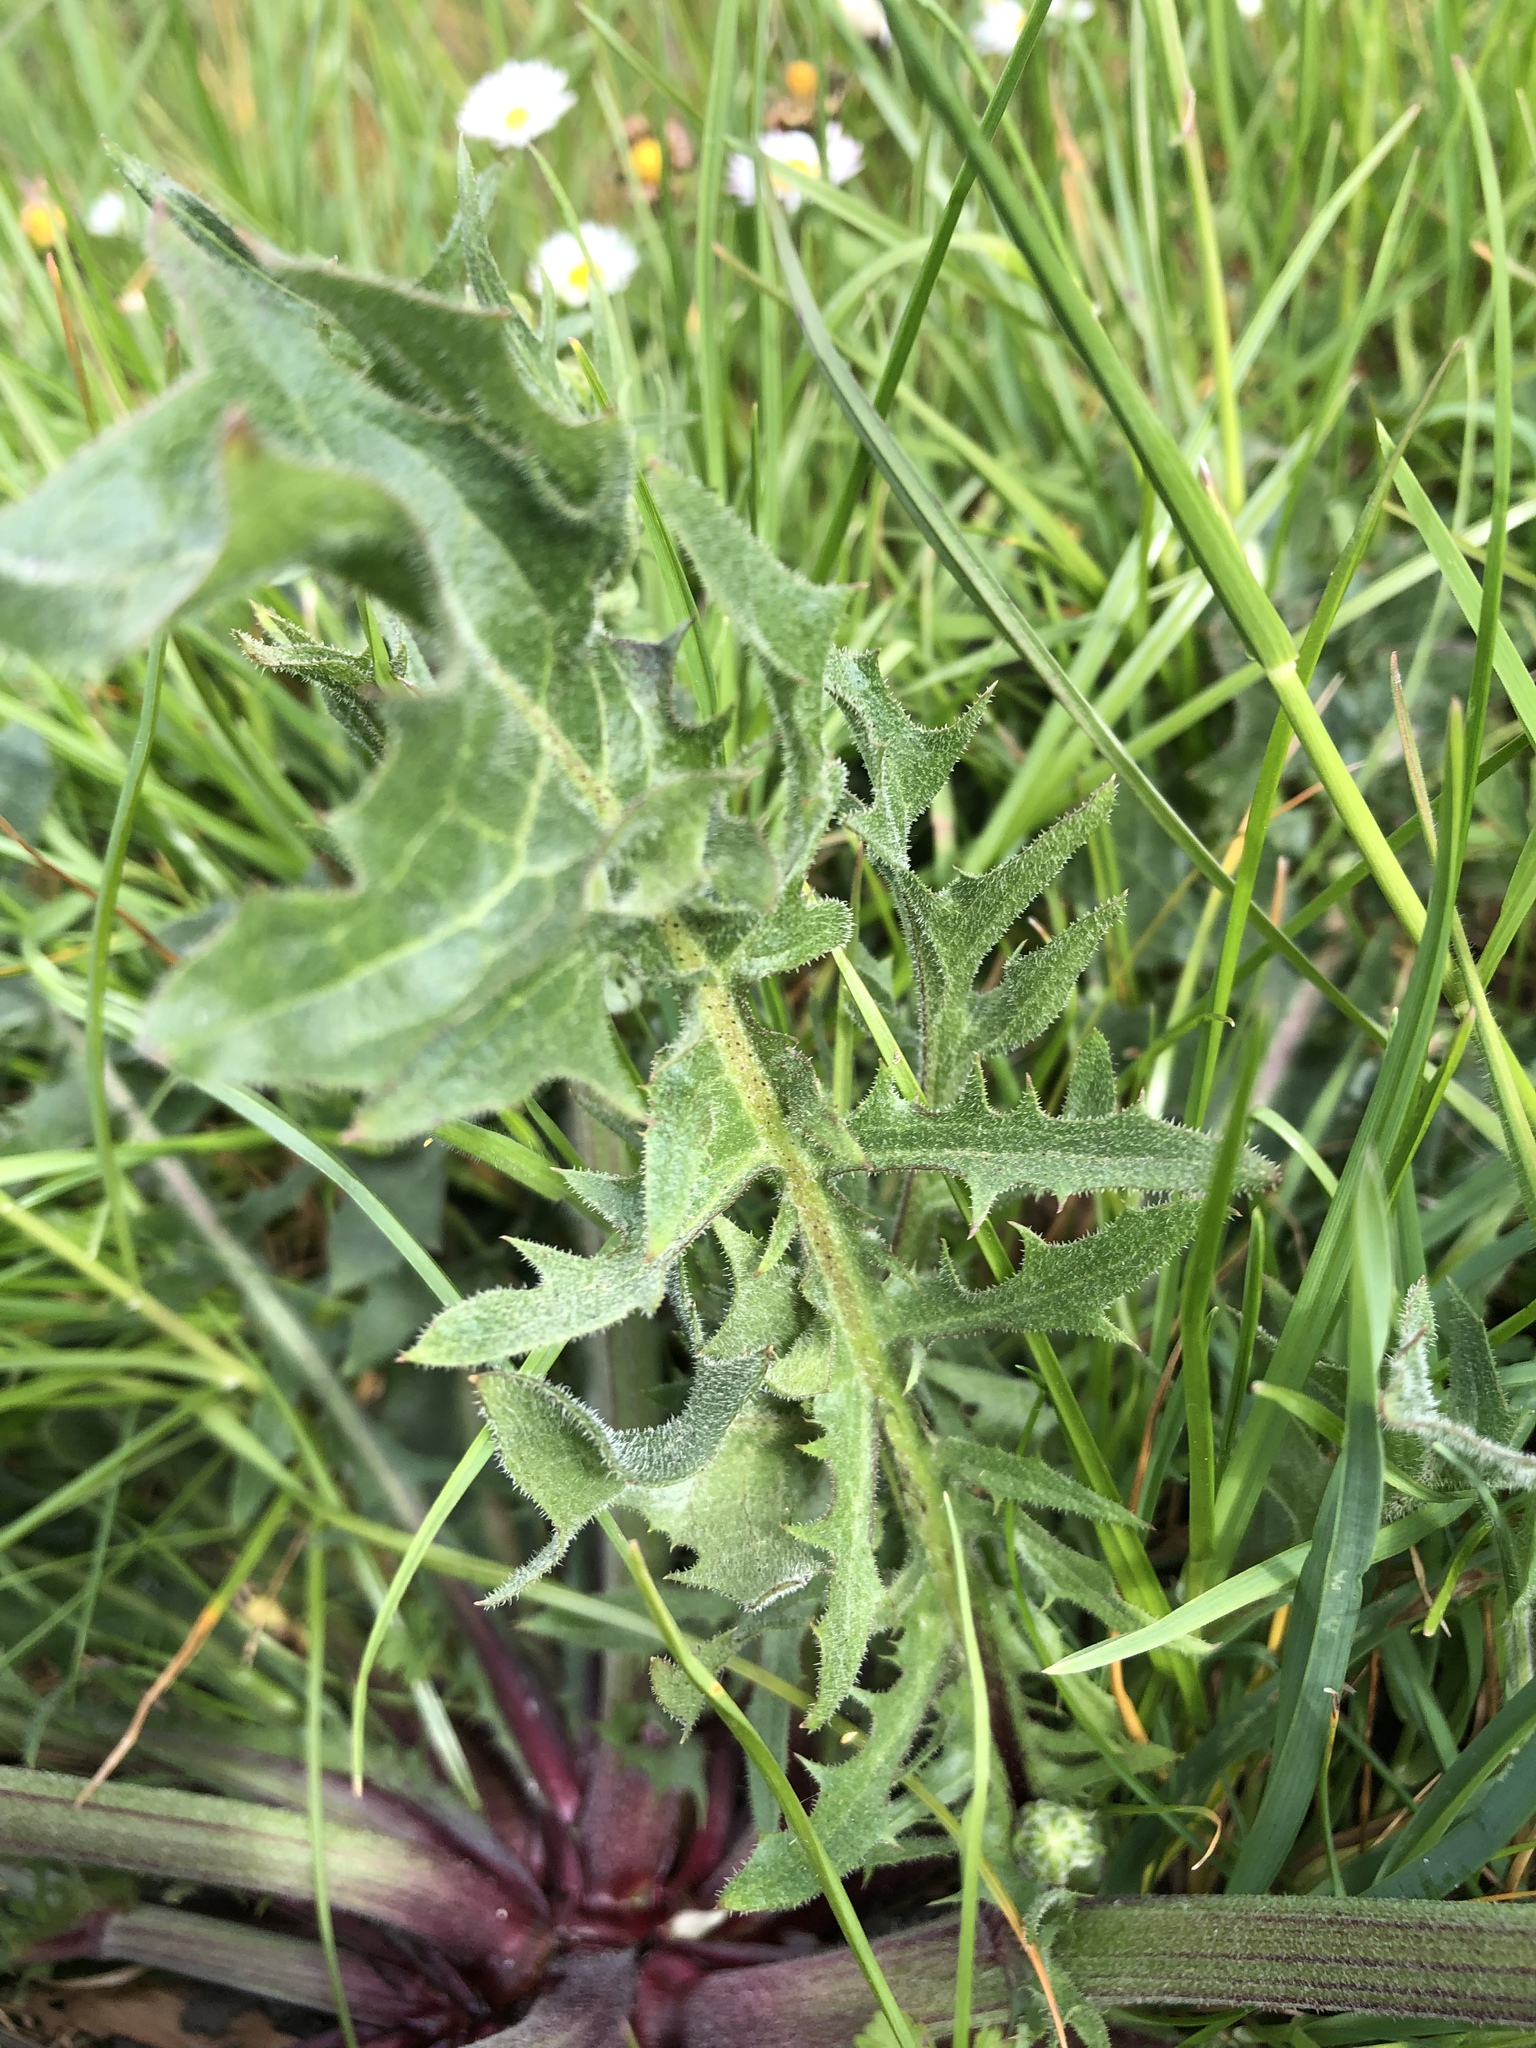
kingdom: Plantae
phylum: Tracheophyta
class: Magnoliopsida
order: Asterales
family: Asteraceae
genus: Crepis
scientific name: Crepis vesicaria
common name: Beaked hawksbeard
